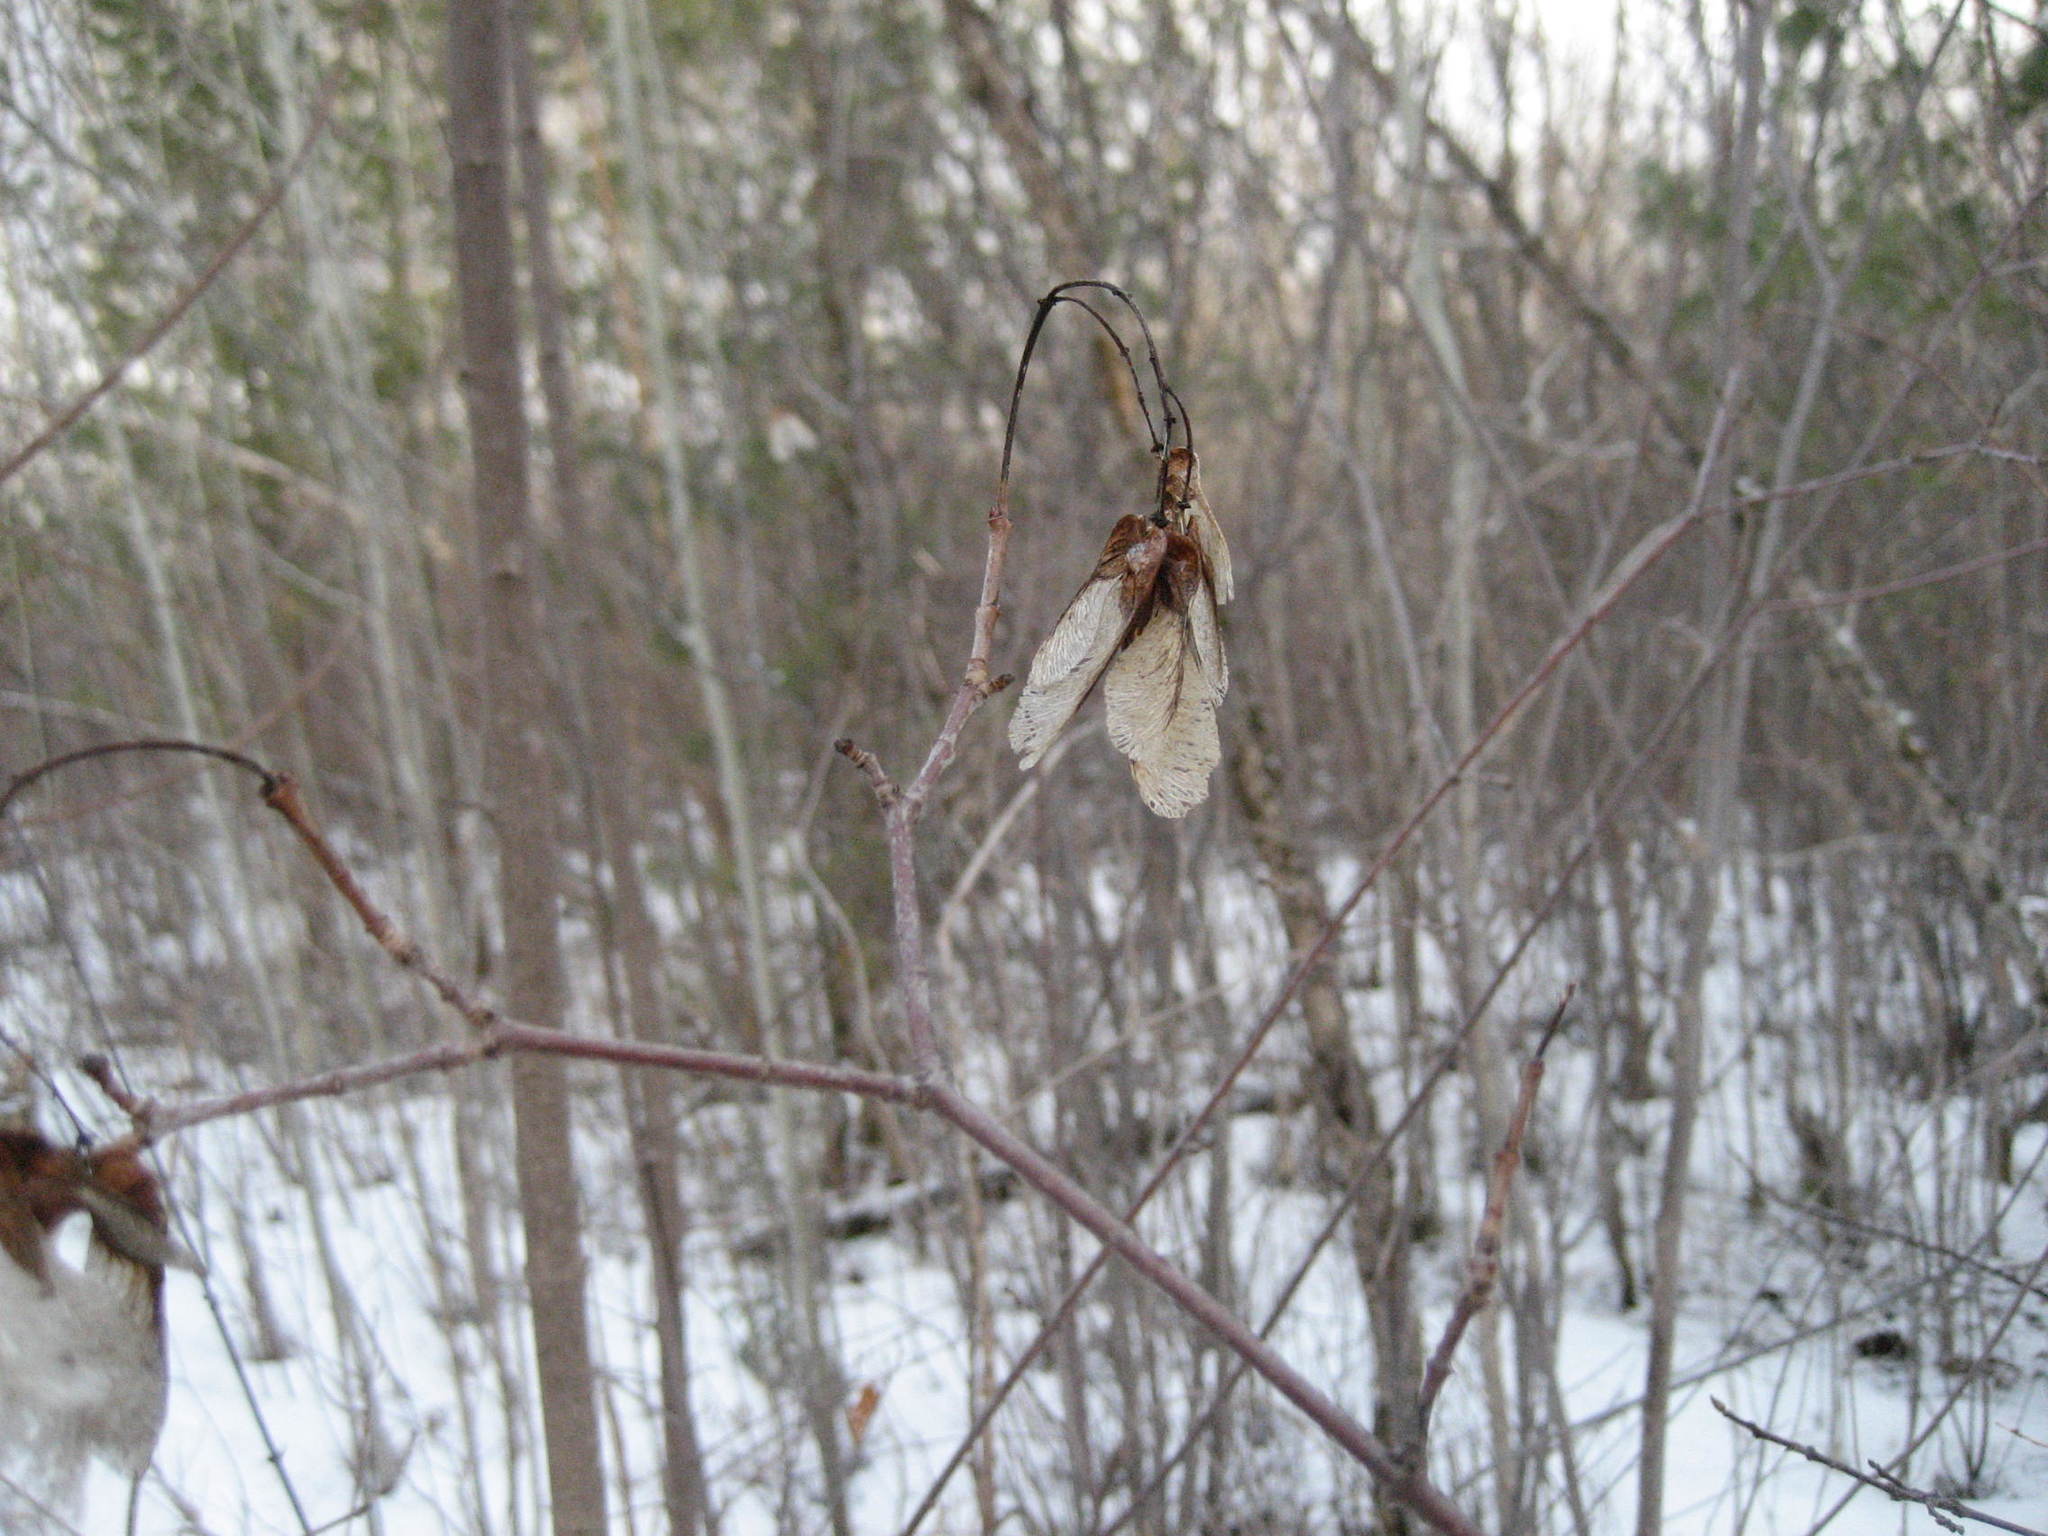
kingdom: Plantae
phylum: Tracheophyta
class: Magnoliopsida
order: Sapindales
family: Sapindaceae
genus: Acer
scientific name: Acer tataricum
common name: Tartar maple
